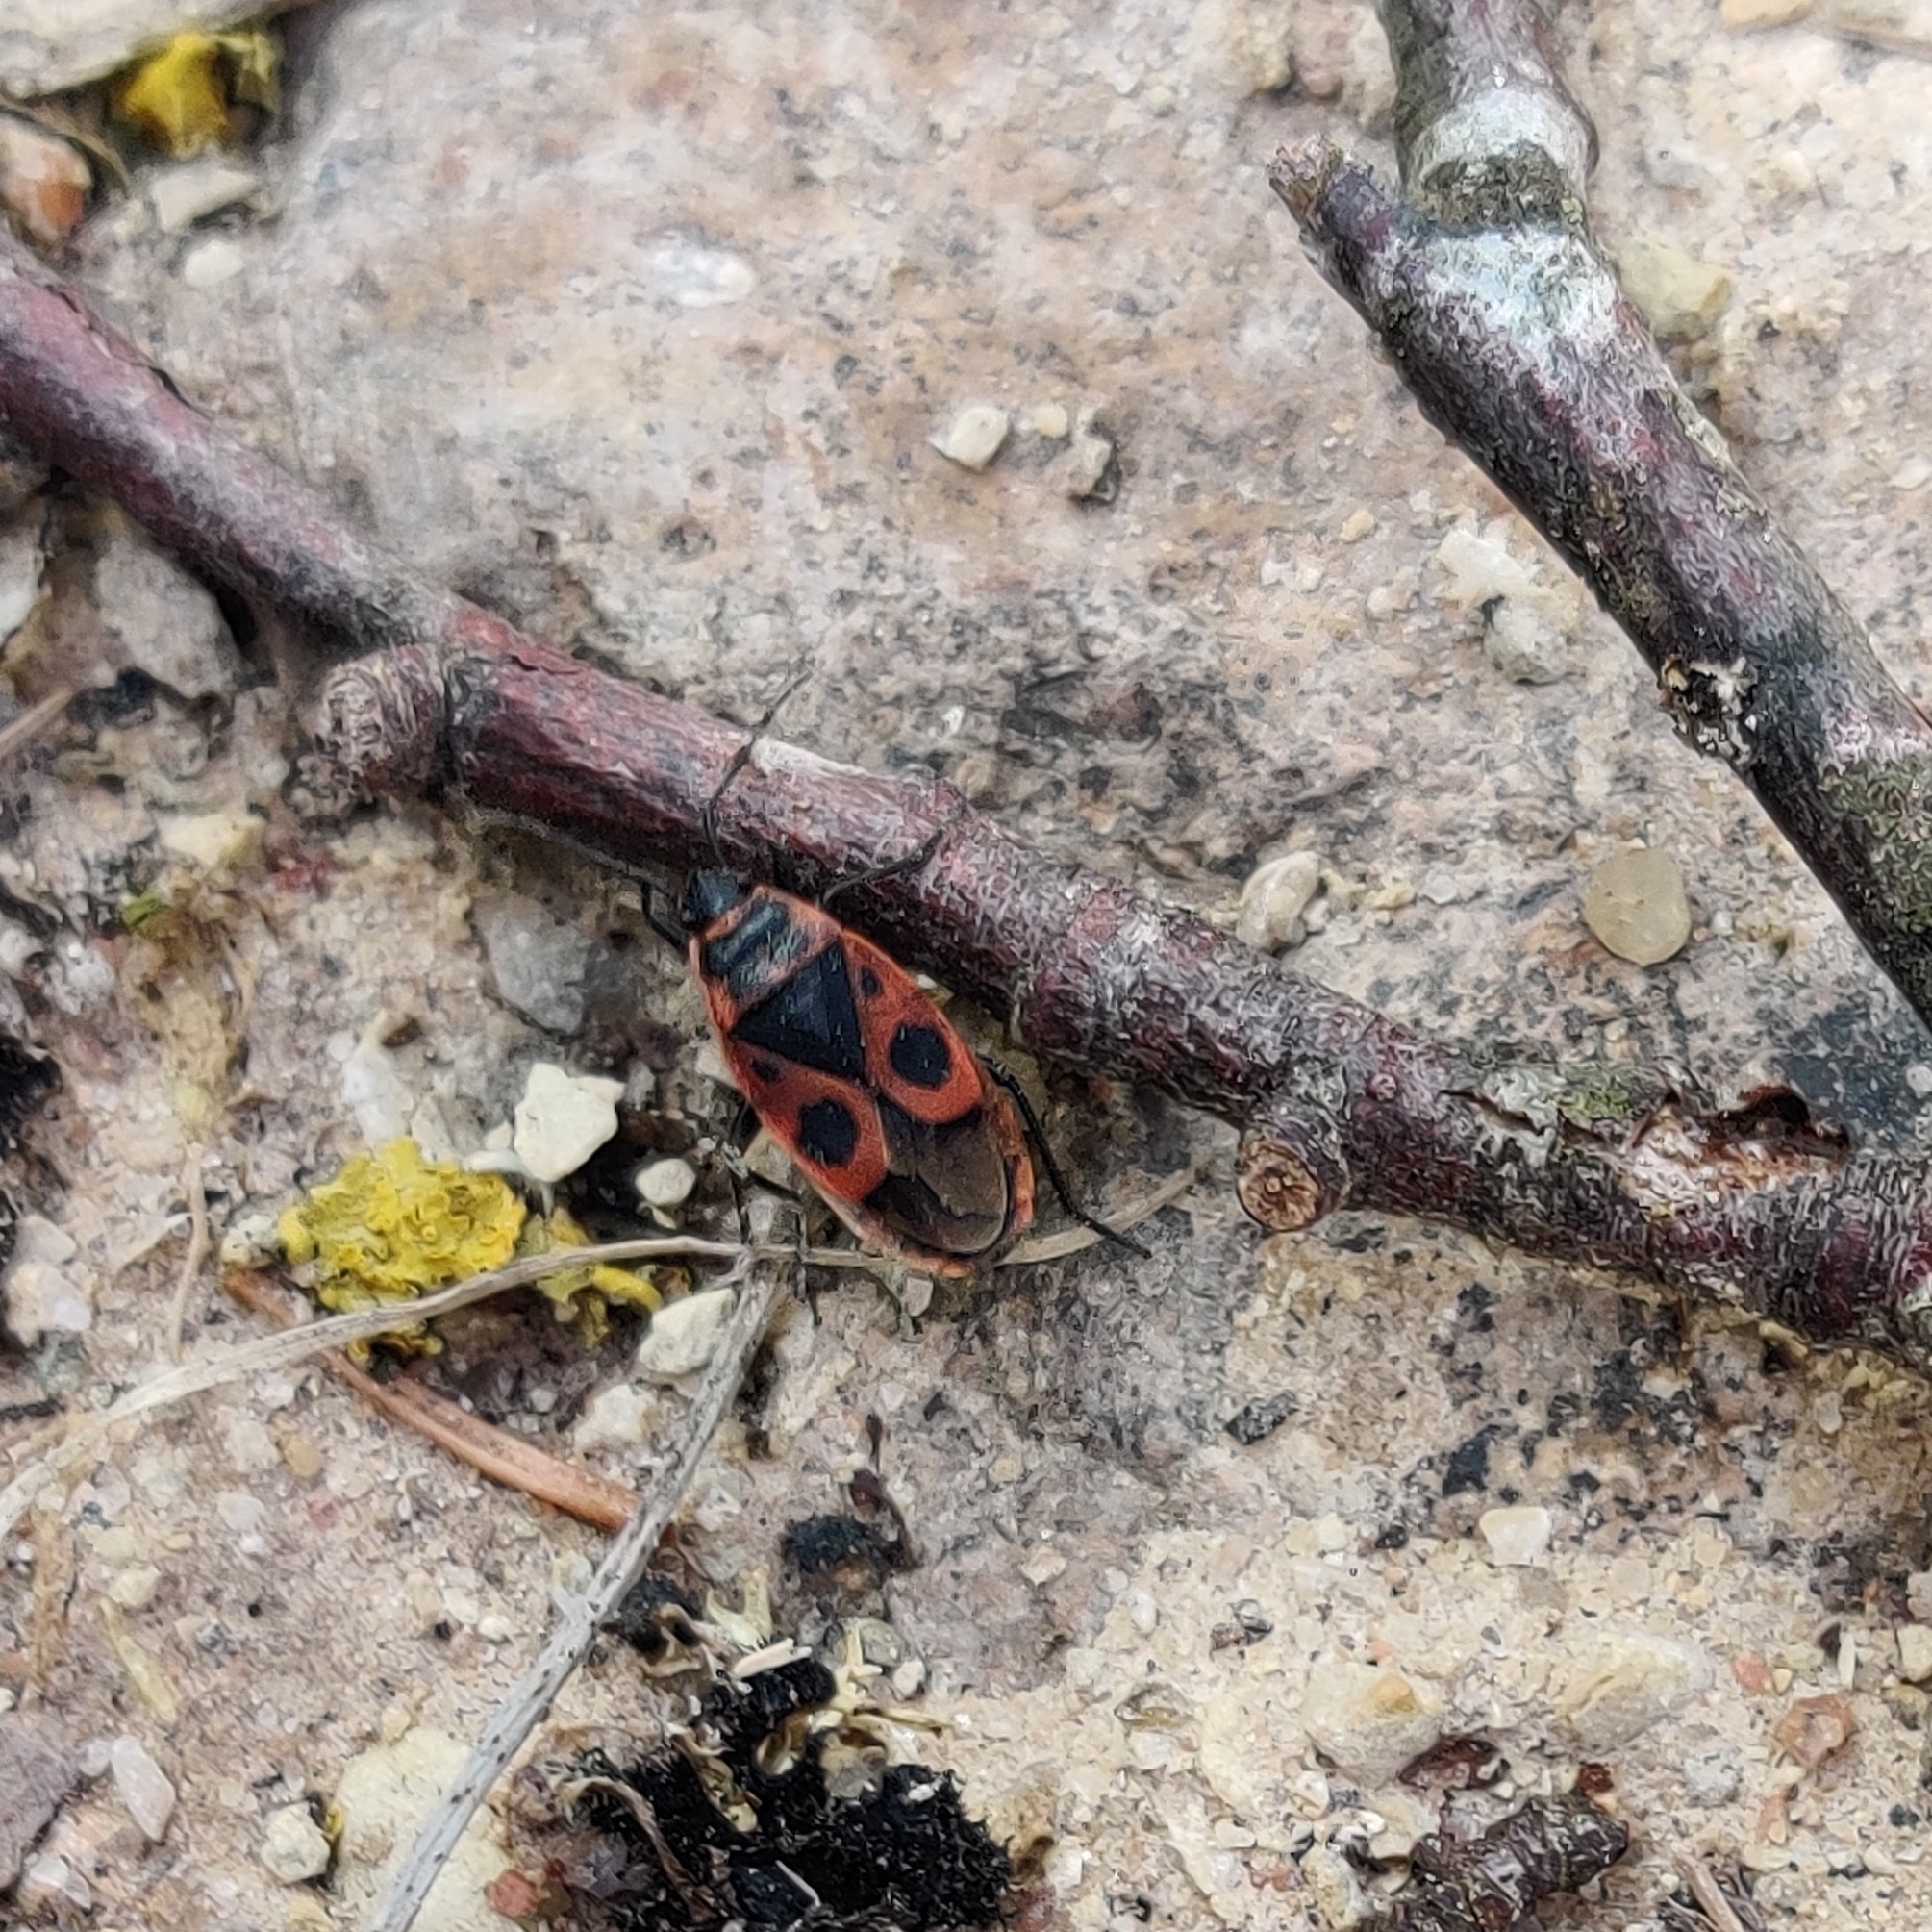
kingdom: Animalia
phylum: Arthropoda
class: Insecta
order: Hemiptera
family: Pyrrhocoridae
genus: Pyrrhocoris
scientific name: Pyrrhocoris apterus
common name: Firebug
